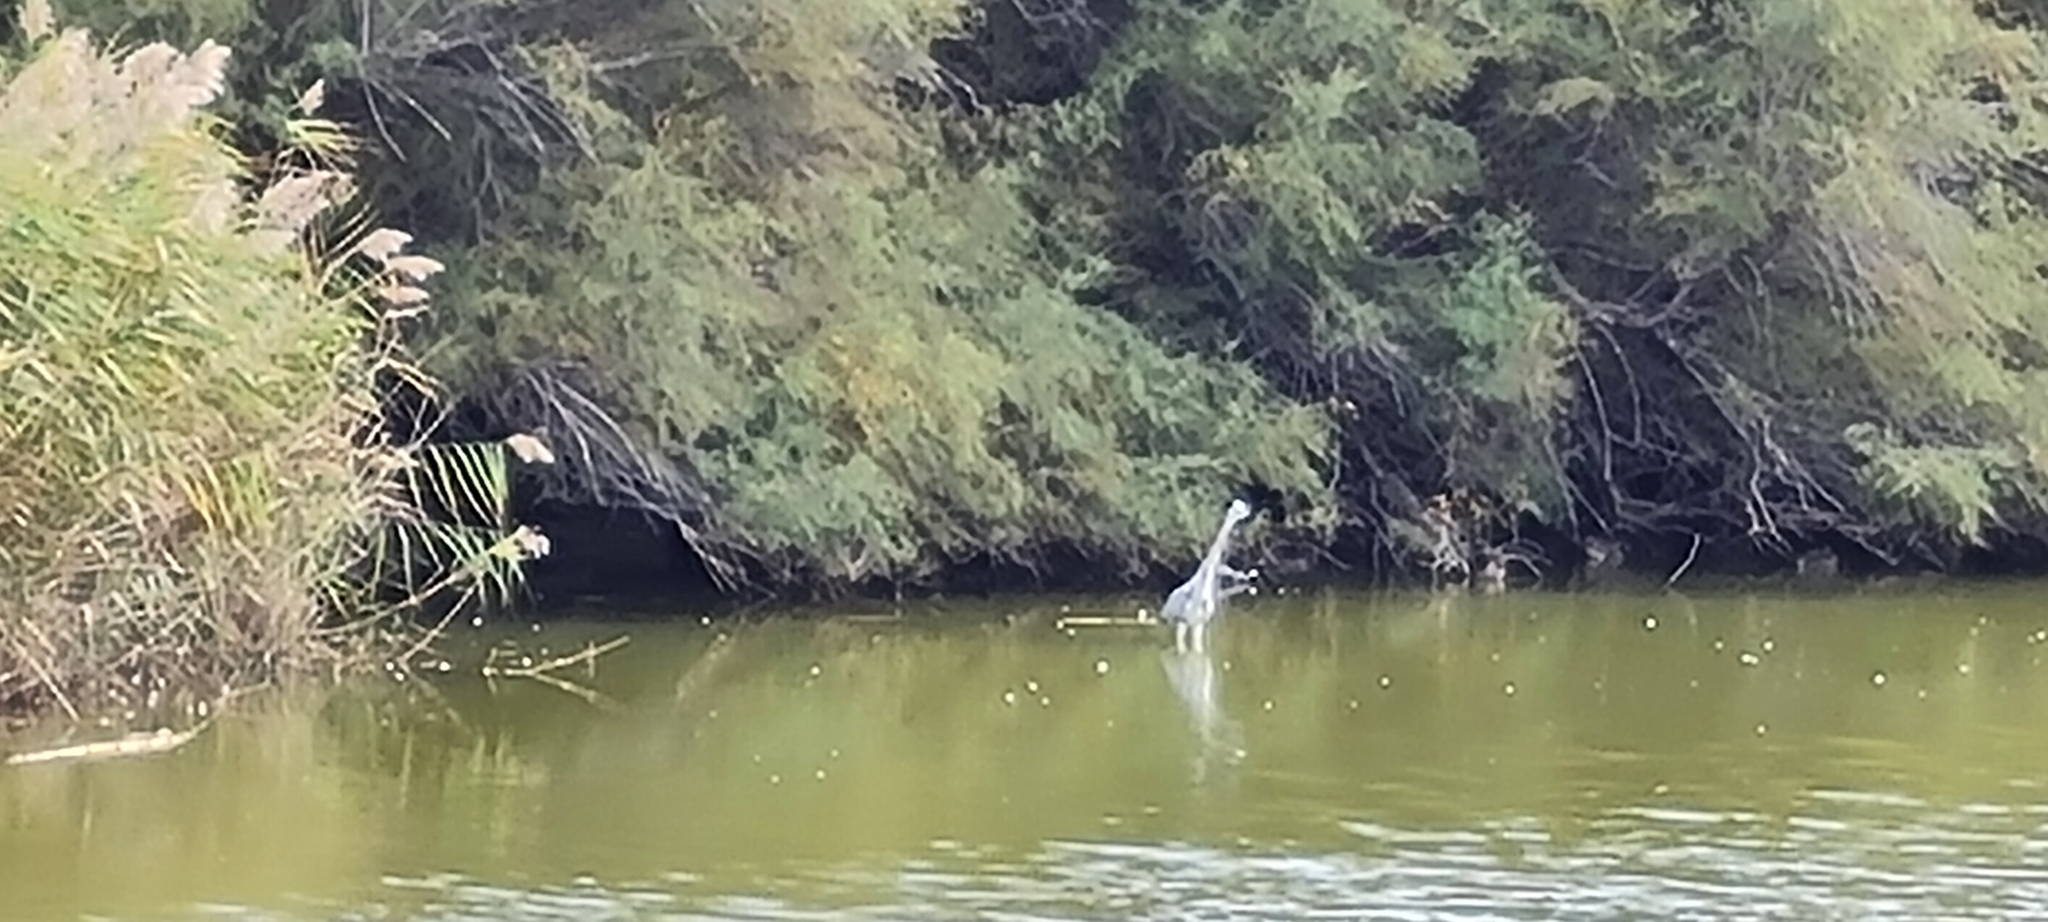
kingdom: Animalia
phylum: Chordata
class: Aves
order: Pelecaniformes
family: Ardeidae
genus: Ardea
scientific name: Ardea cinerea
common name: Grey heron
